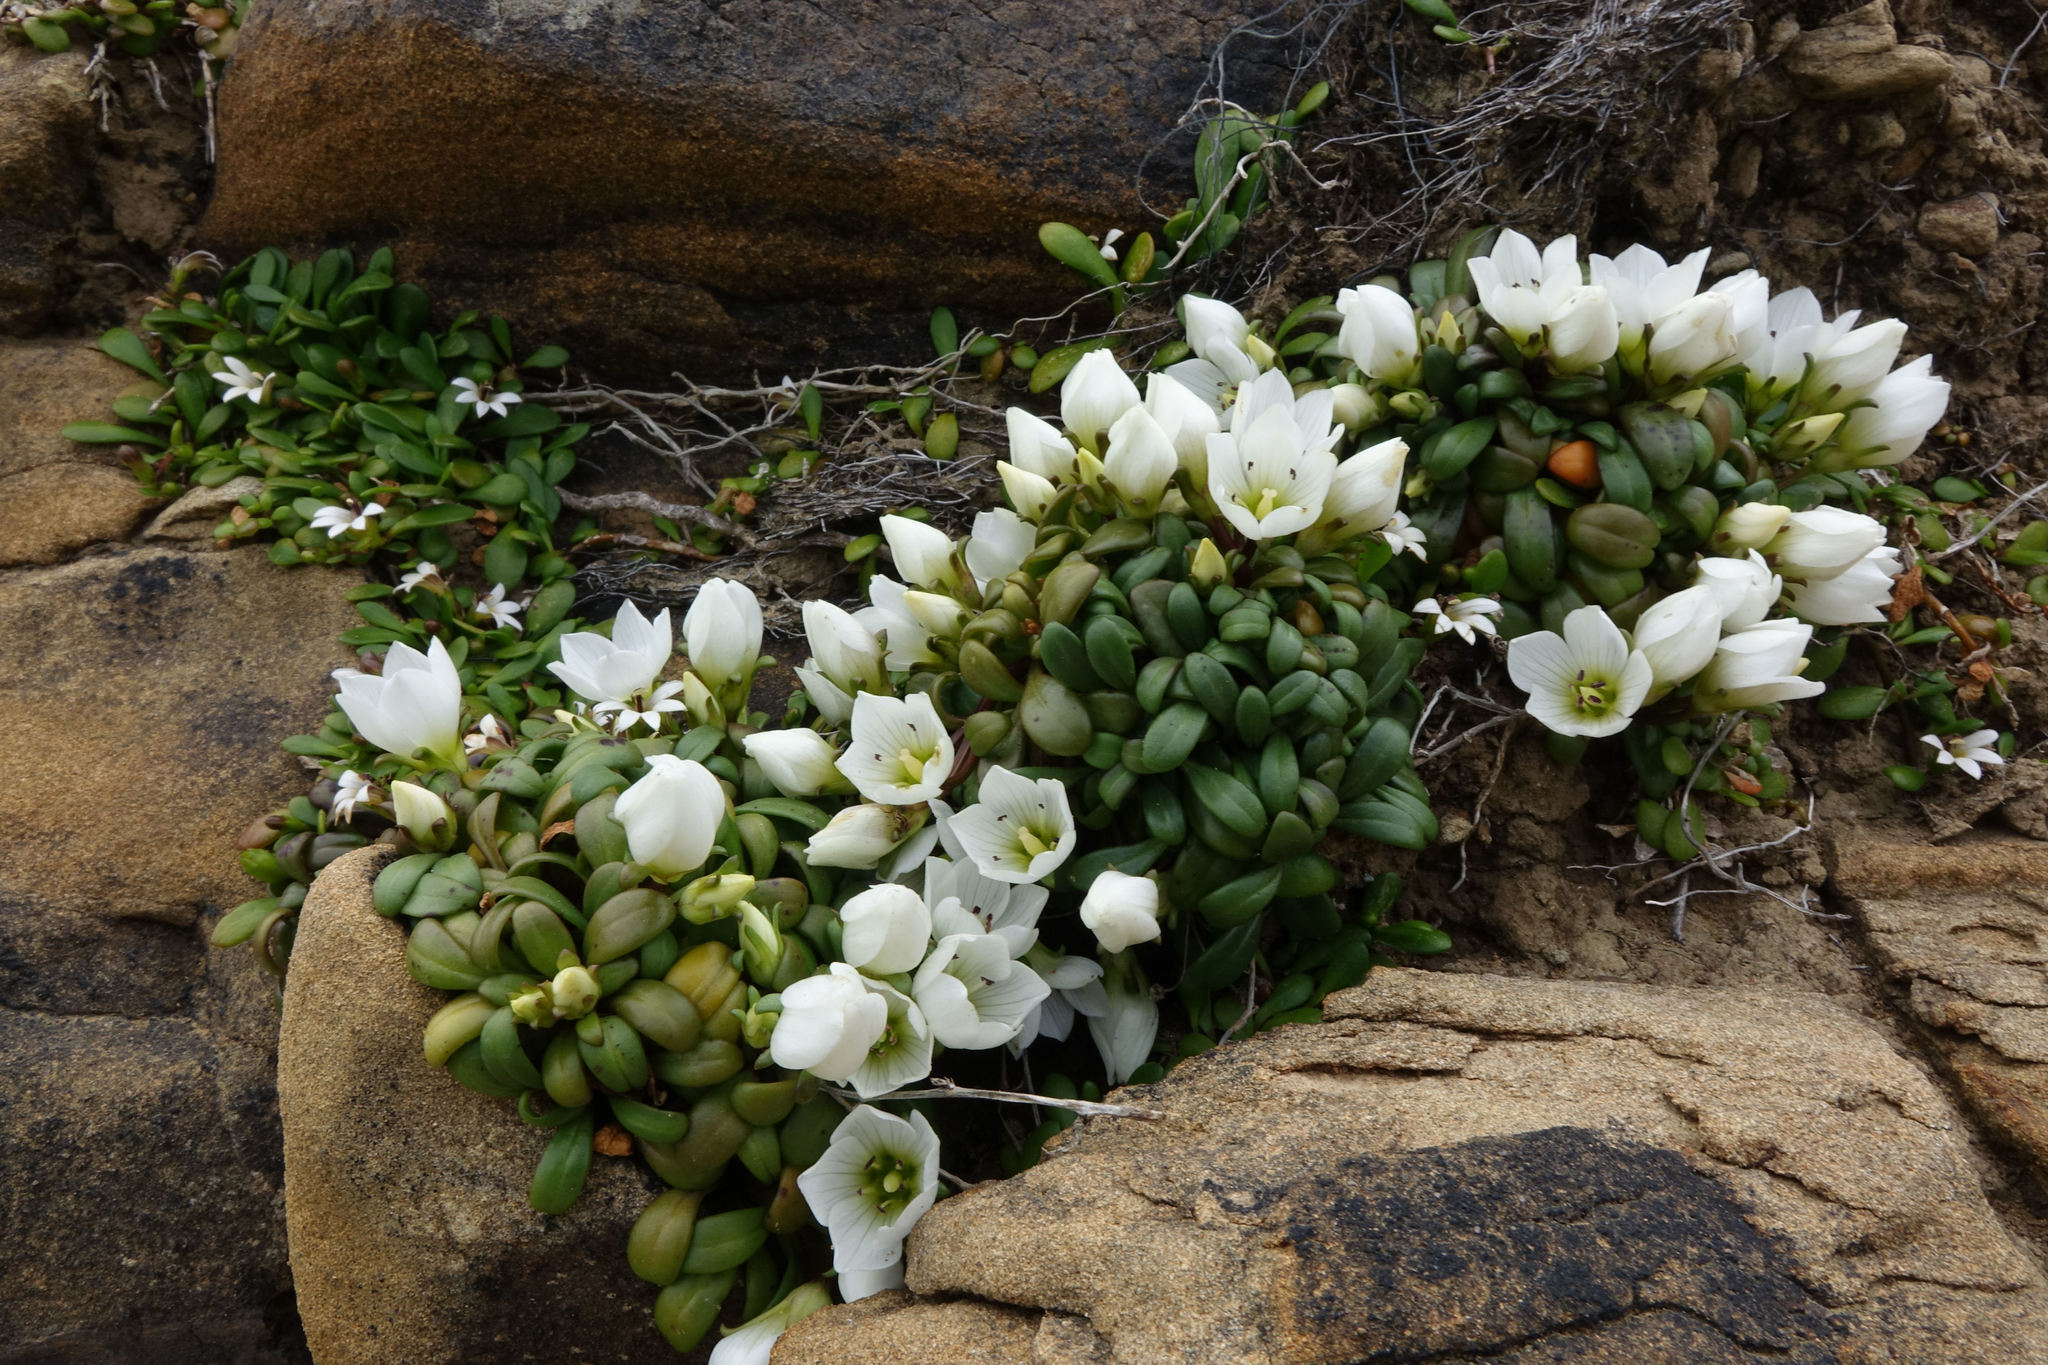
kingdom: Plantae
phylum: Tracheophyta
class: Magnoliopsida
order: Gentianales
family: Gentianaceae
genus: Gentianella
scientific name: Gentianella saxosa
